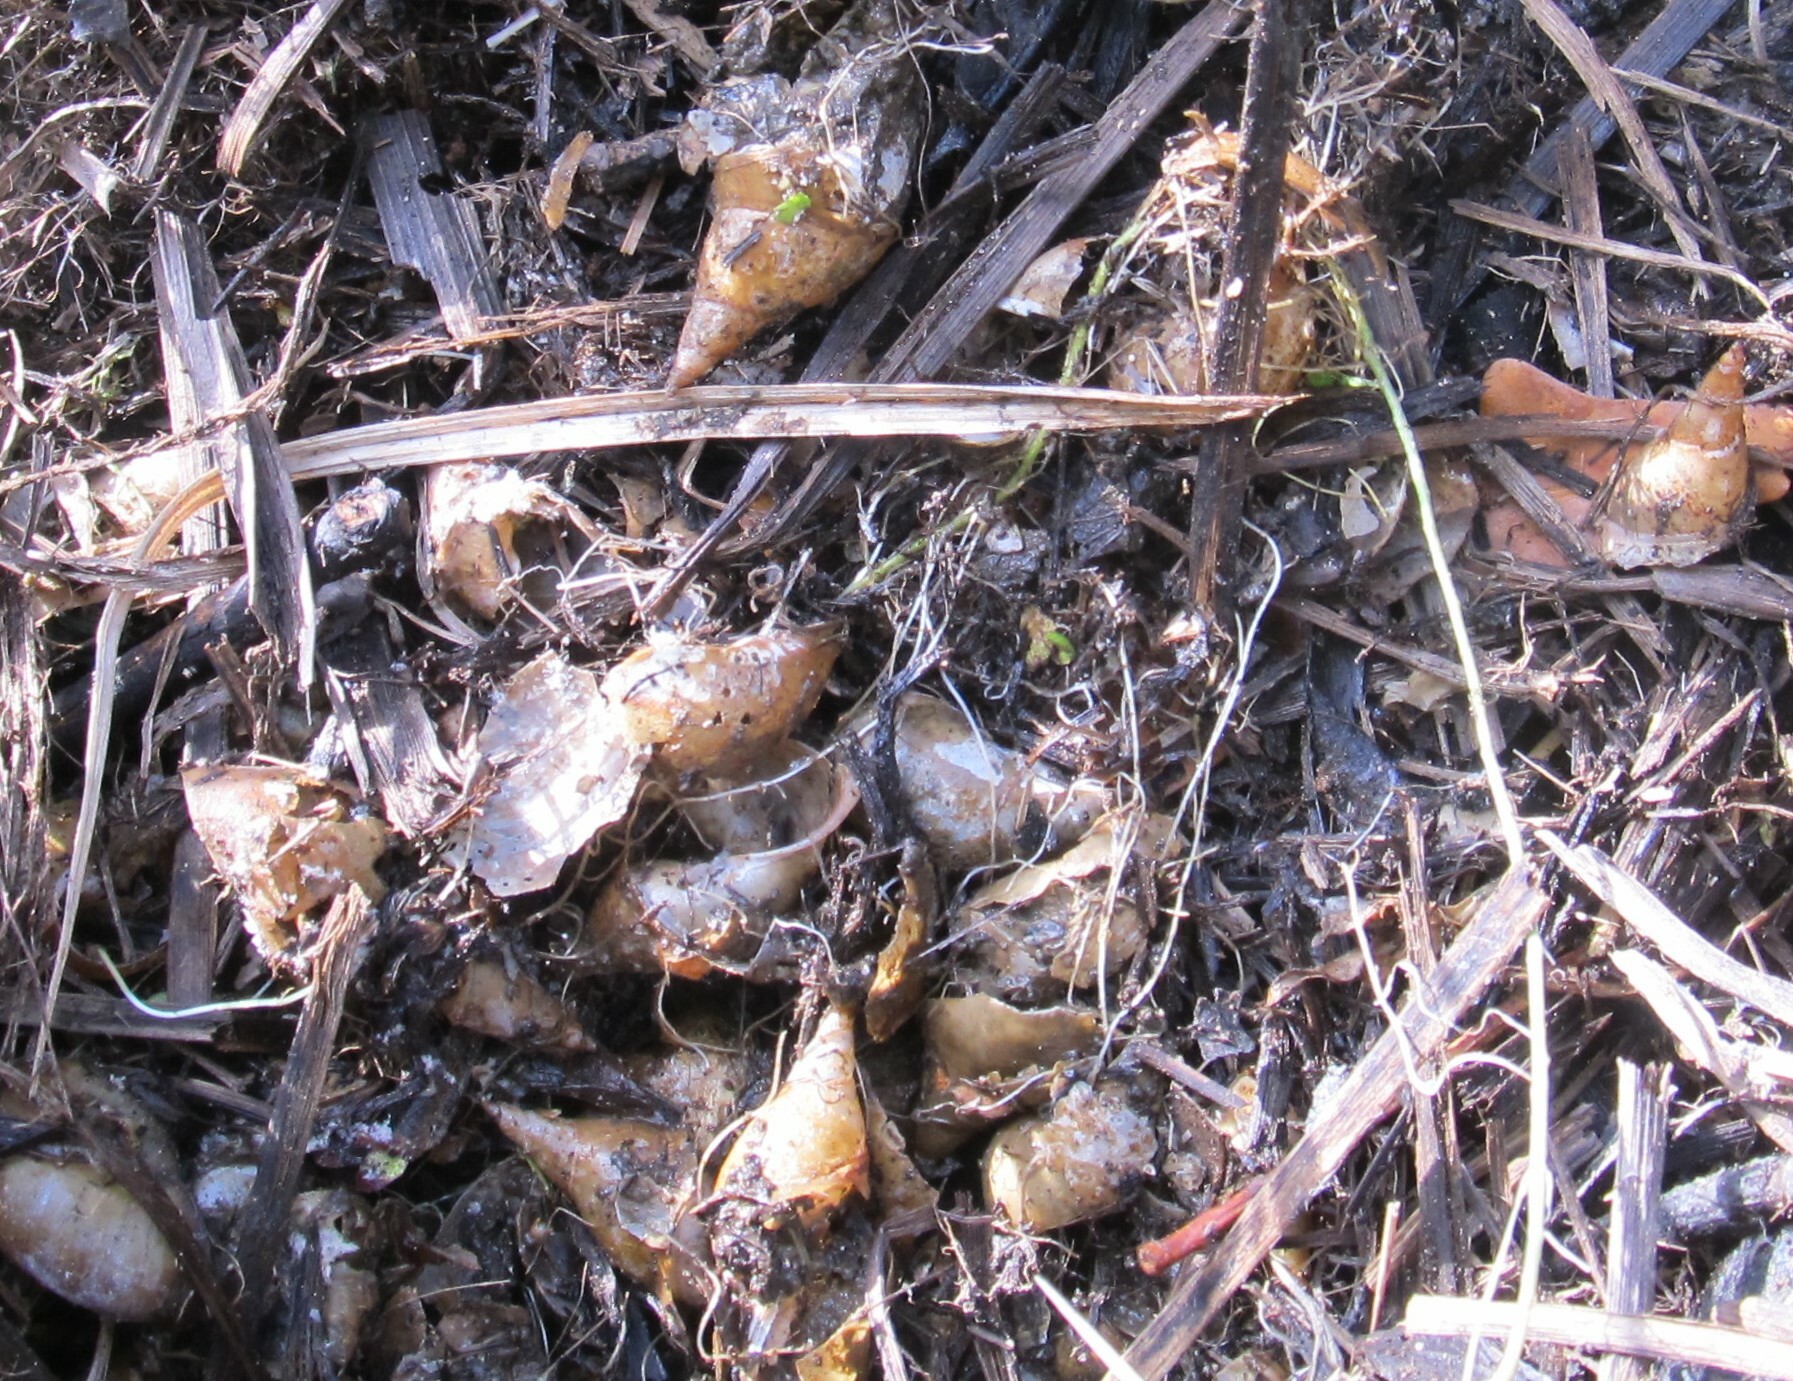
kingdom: Animalia
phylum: Mollusca
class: Gastropoda
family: Lymnaeidae
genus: Lymnaea
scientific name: Lymnaea stagnalis
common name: Great pond snail
